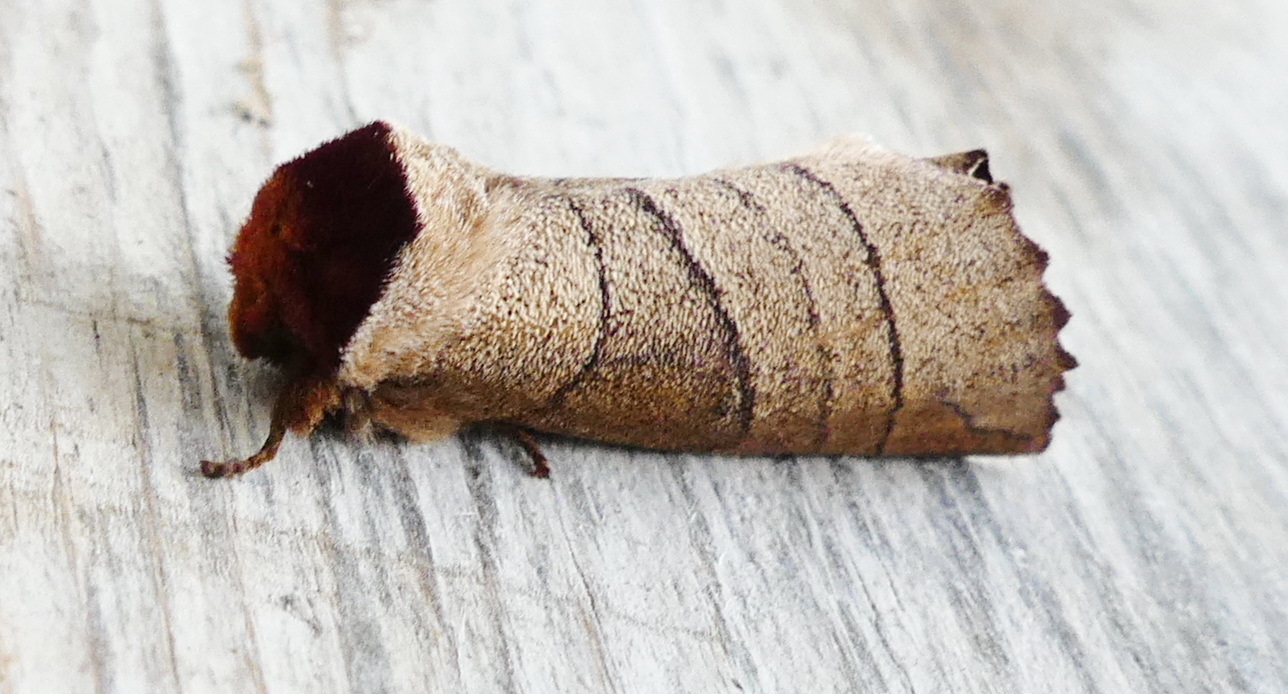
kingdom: Animalia
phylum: Arthropoda
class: Insecta
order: Lepidoptera
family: Notodontidae
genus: Datana
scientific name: Datana ministra
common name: Yellow-necked caterpillar moth
